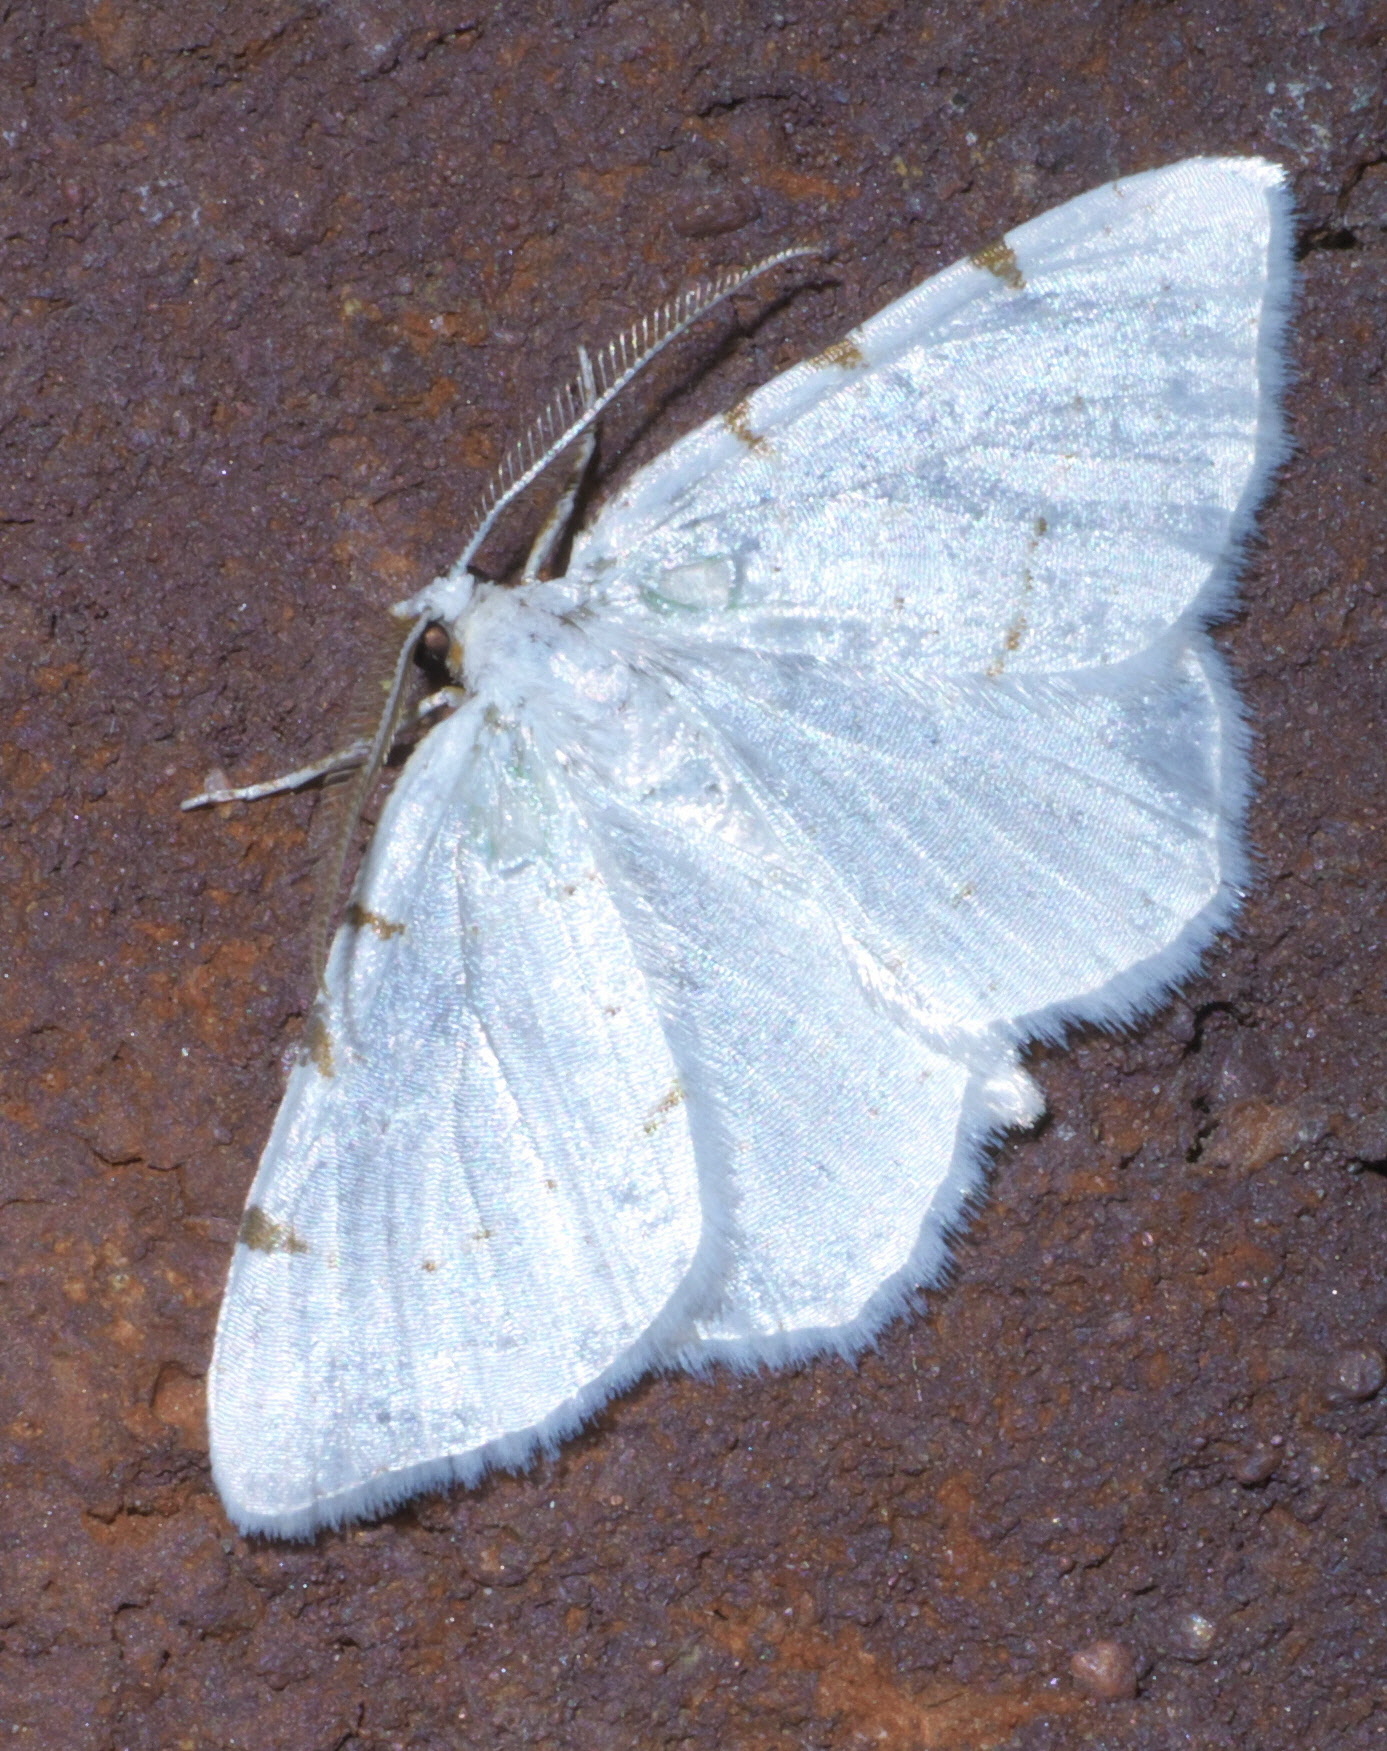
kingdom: Animalia
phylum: Arthropoda
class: Insecta
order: Lepidoptera
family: Geometridae
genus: Macaria
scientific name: Macaria pustularia
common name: Lesser maple spanworm moth
